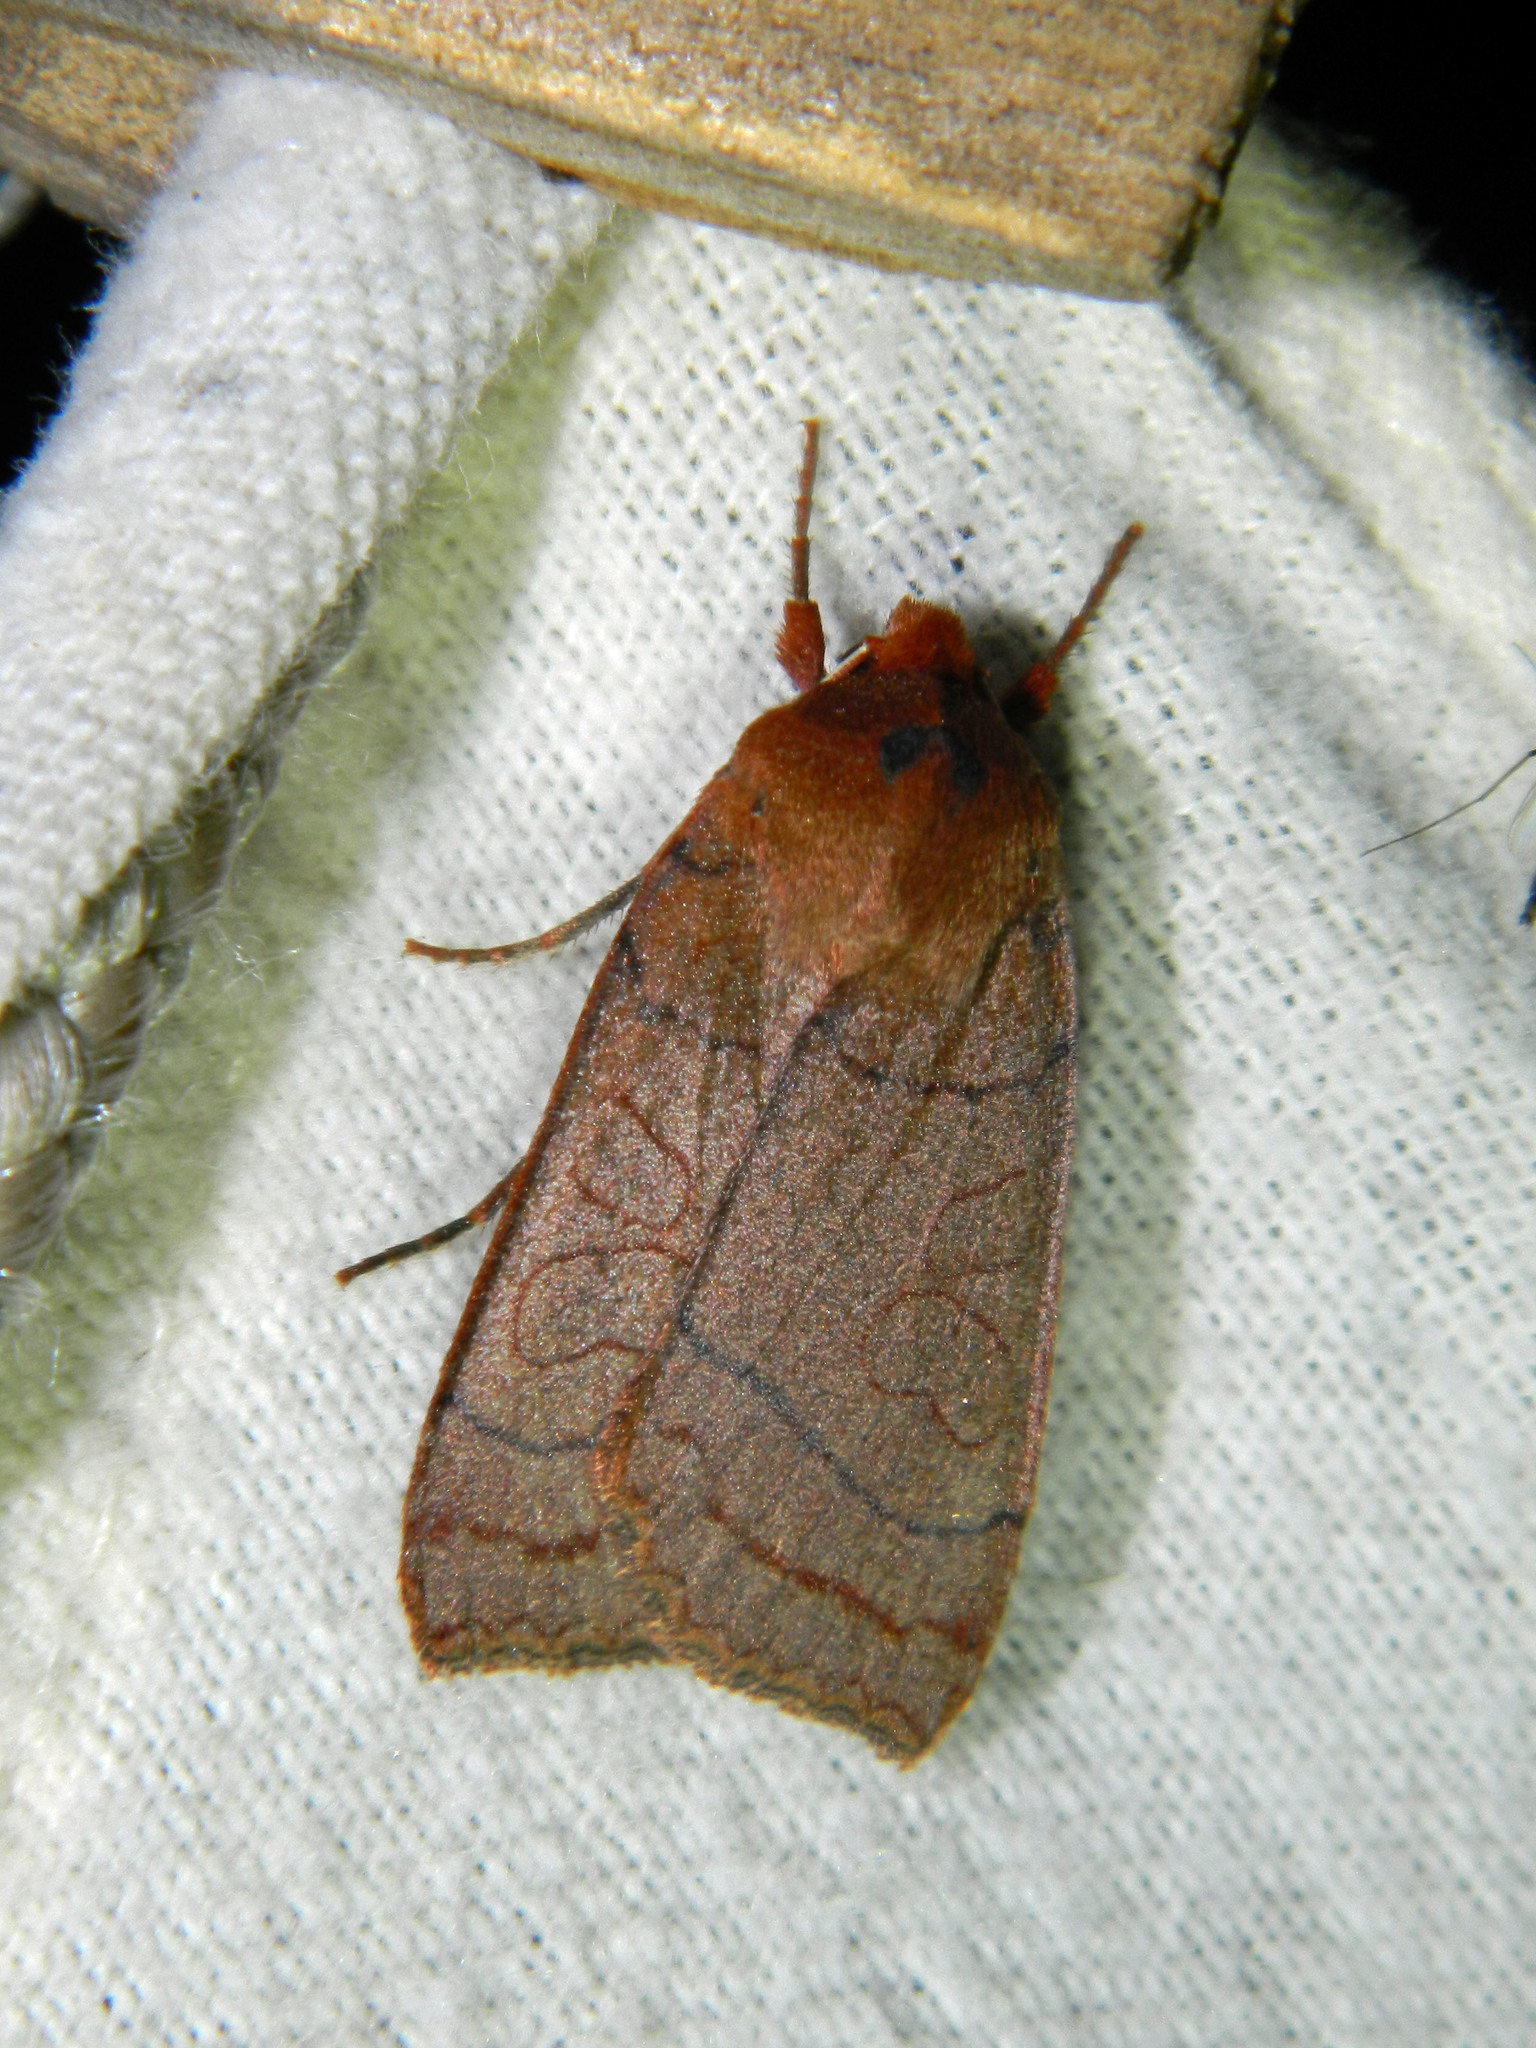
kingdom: Animalia
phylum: Arthropoda
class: Insecta
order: Lepidoptera
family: Noctuidae
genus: Metaxaglaea
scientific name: Metaxaglaea inulta
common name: Unsated sallow
